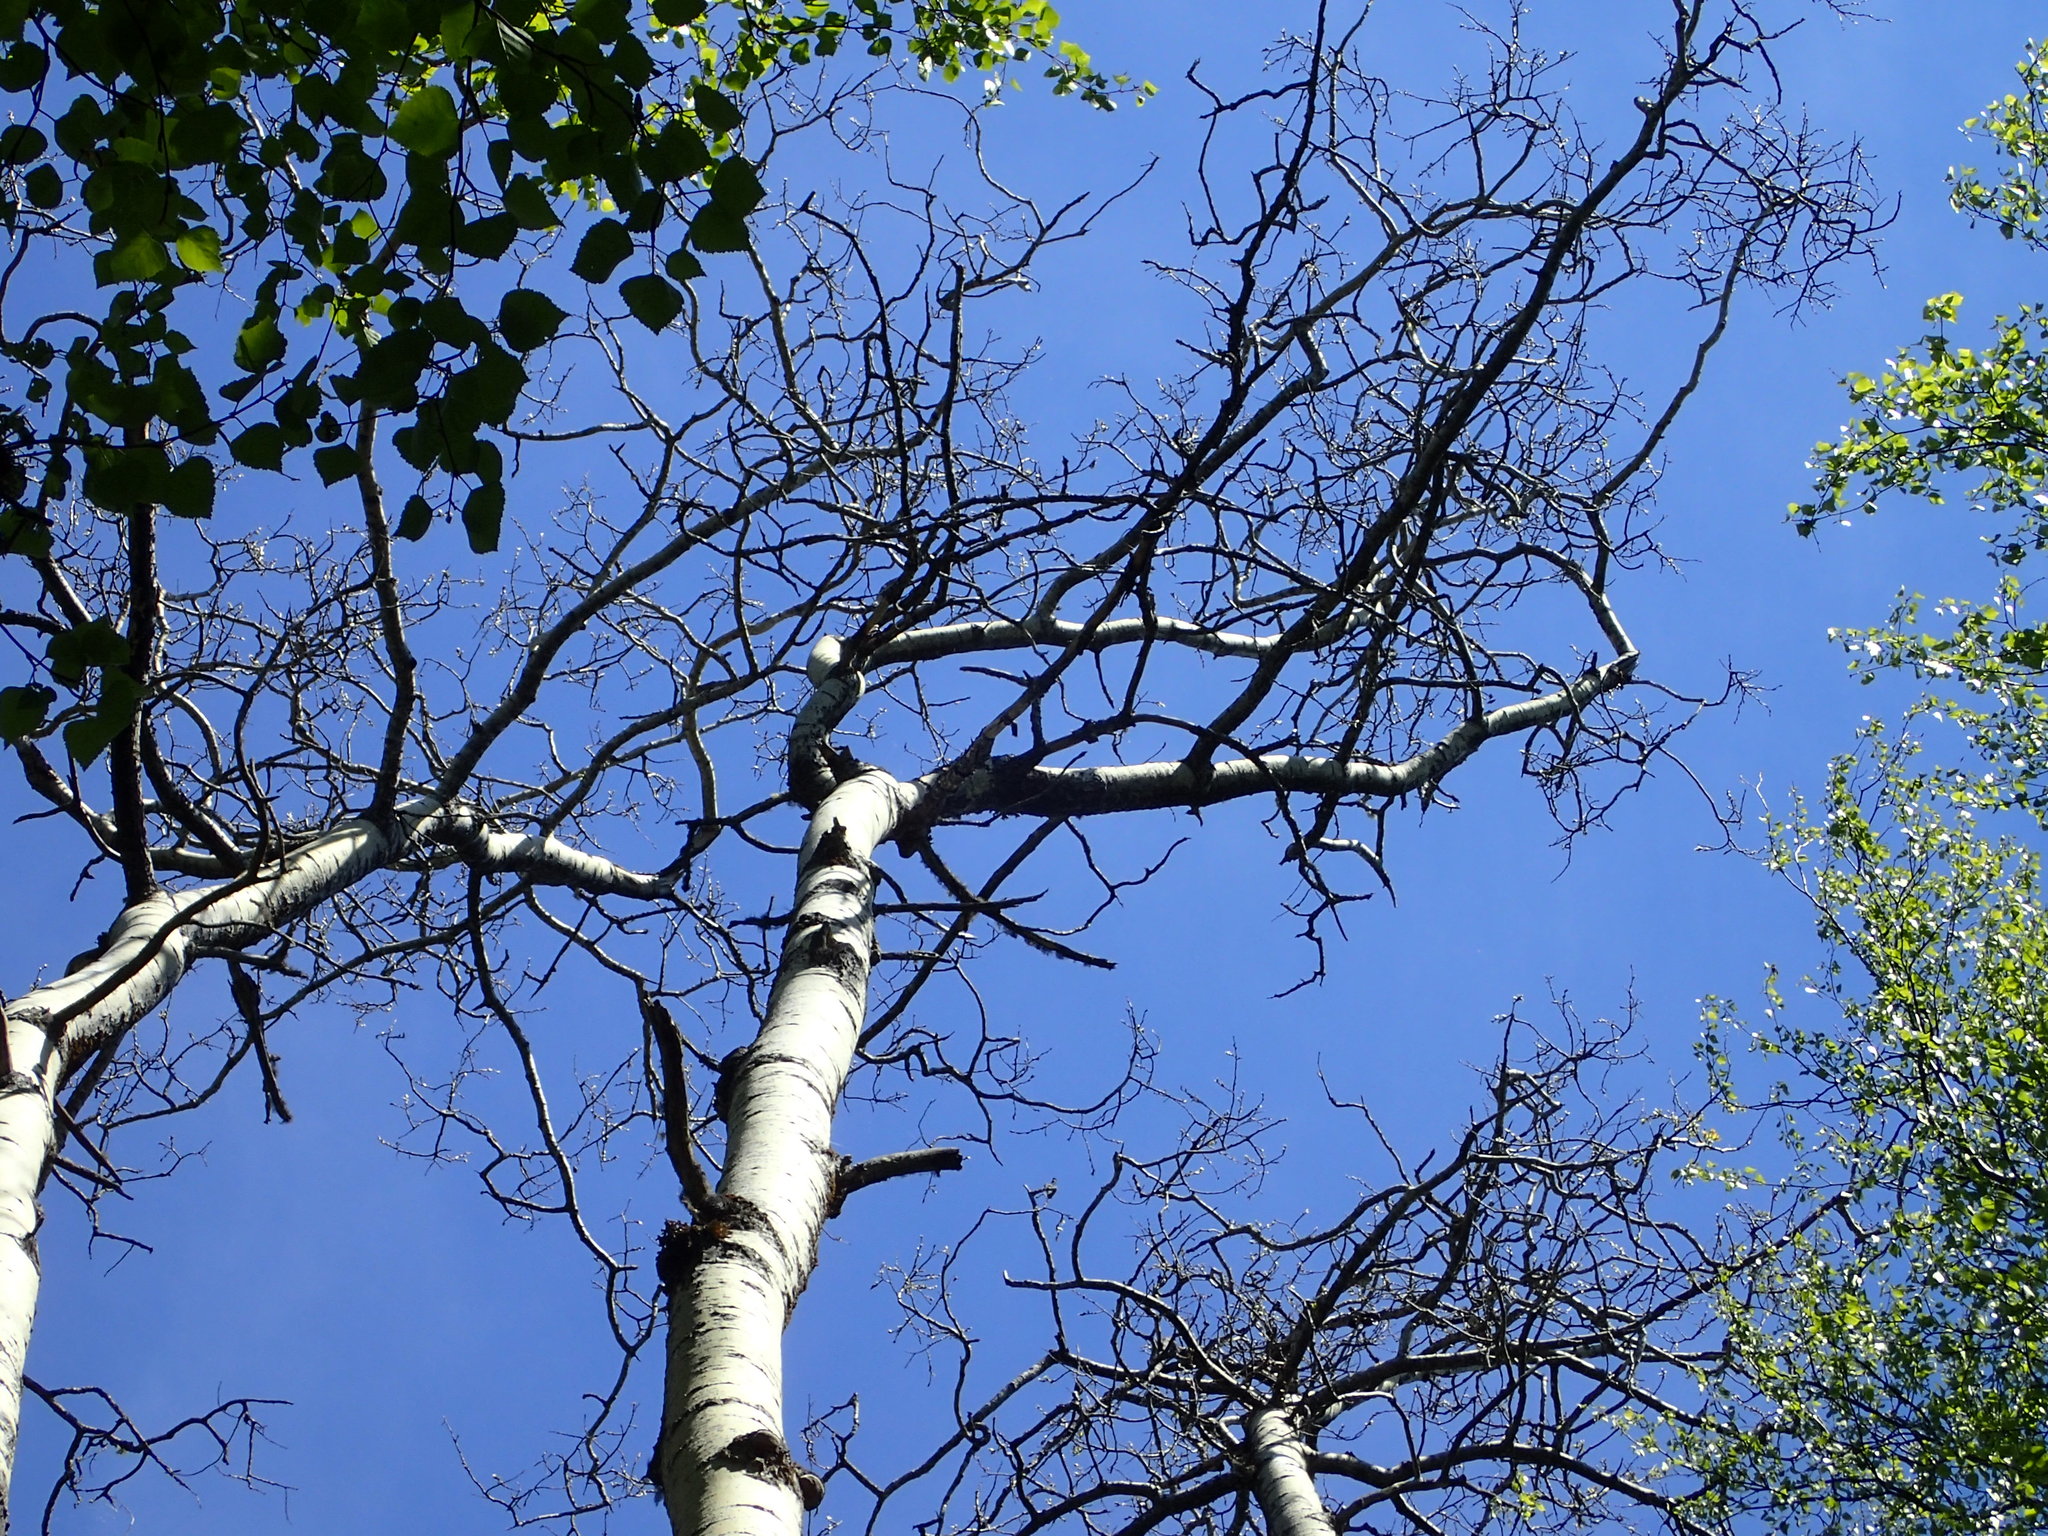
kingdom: Plantae
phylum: Tracheophyta
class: Magnoliopsida
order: Malpighiales
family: Salicaceae
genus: Populus
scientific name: Populus tremuloides
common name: Quaking aspen
